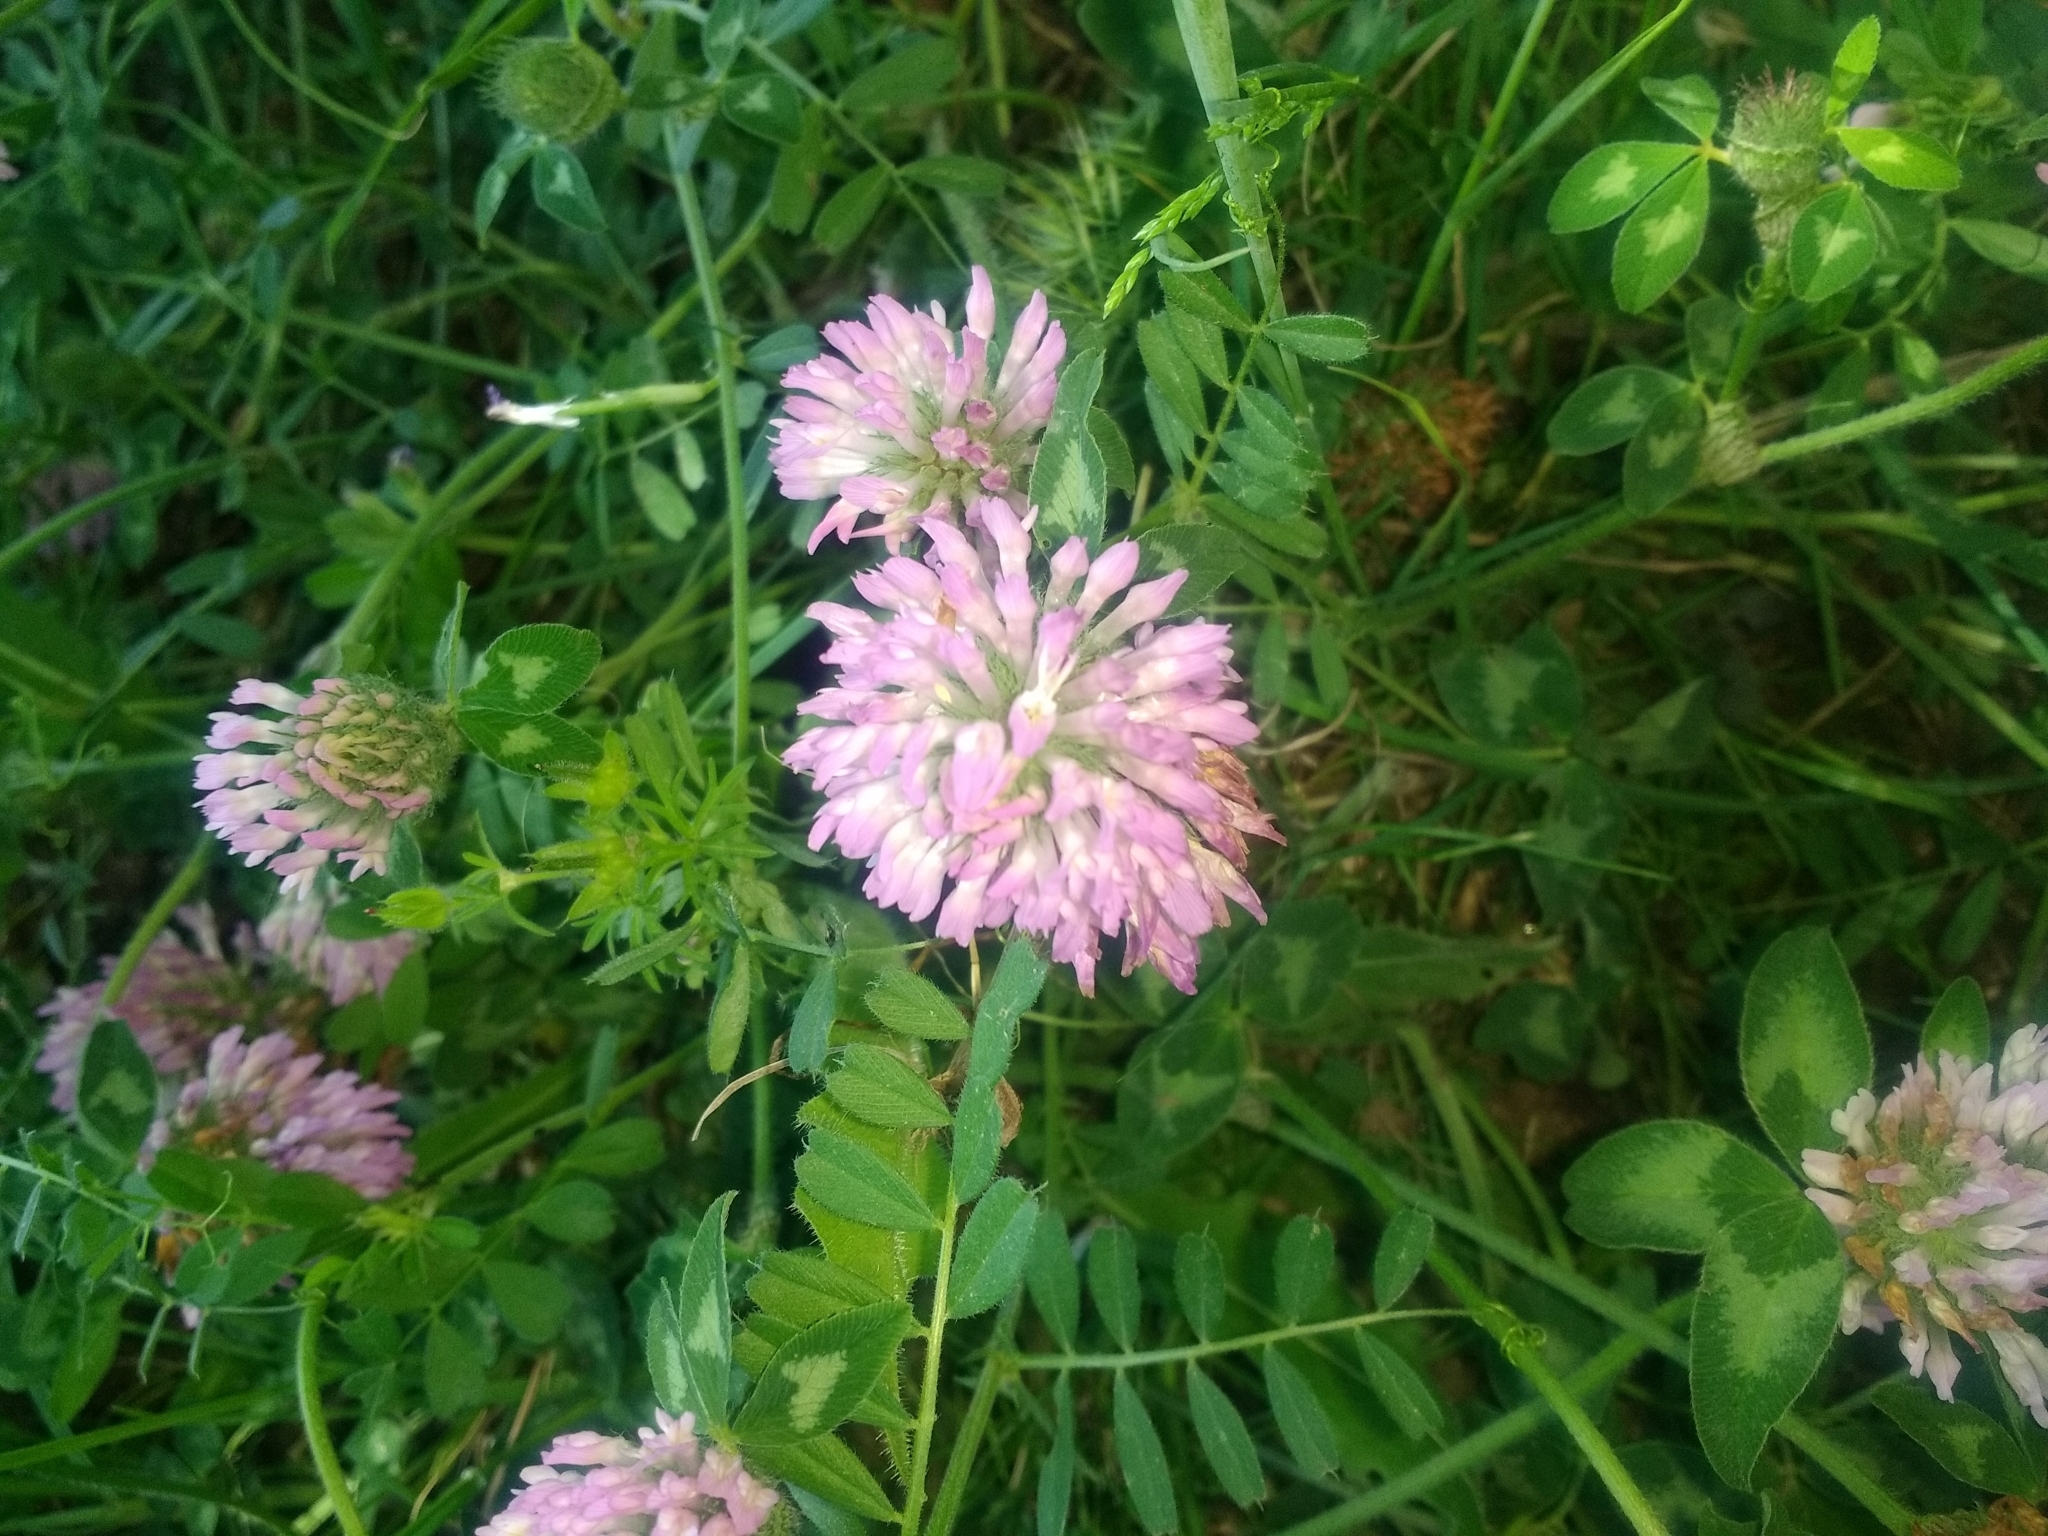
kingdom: Plantae
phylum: Tracheophyta
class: Magnoliopsida
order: Fabales
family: Fabaceae
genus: Trifolium
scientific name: Trifolium pratense
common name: Red clover
